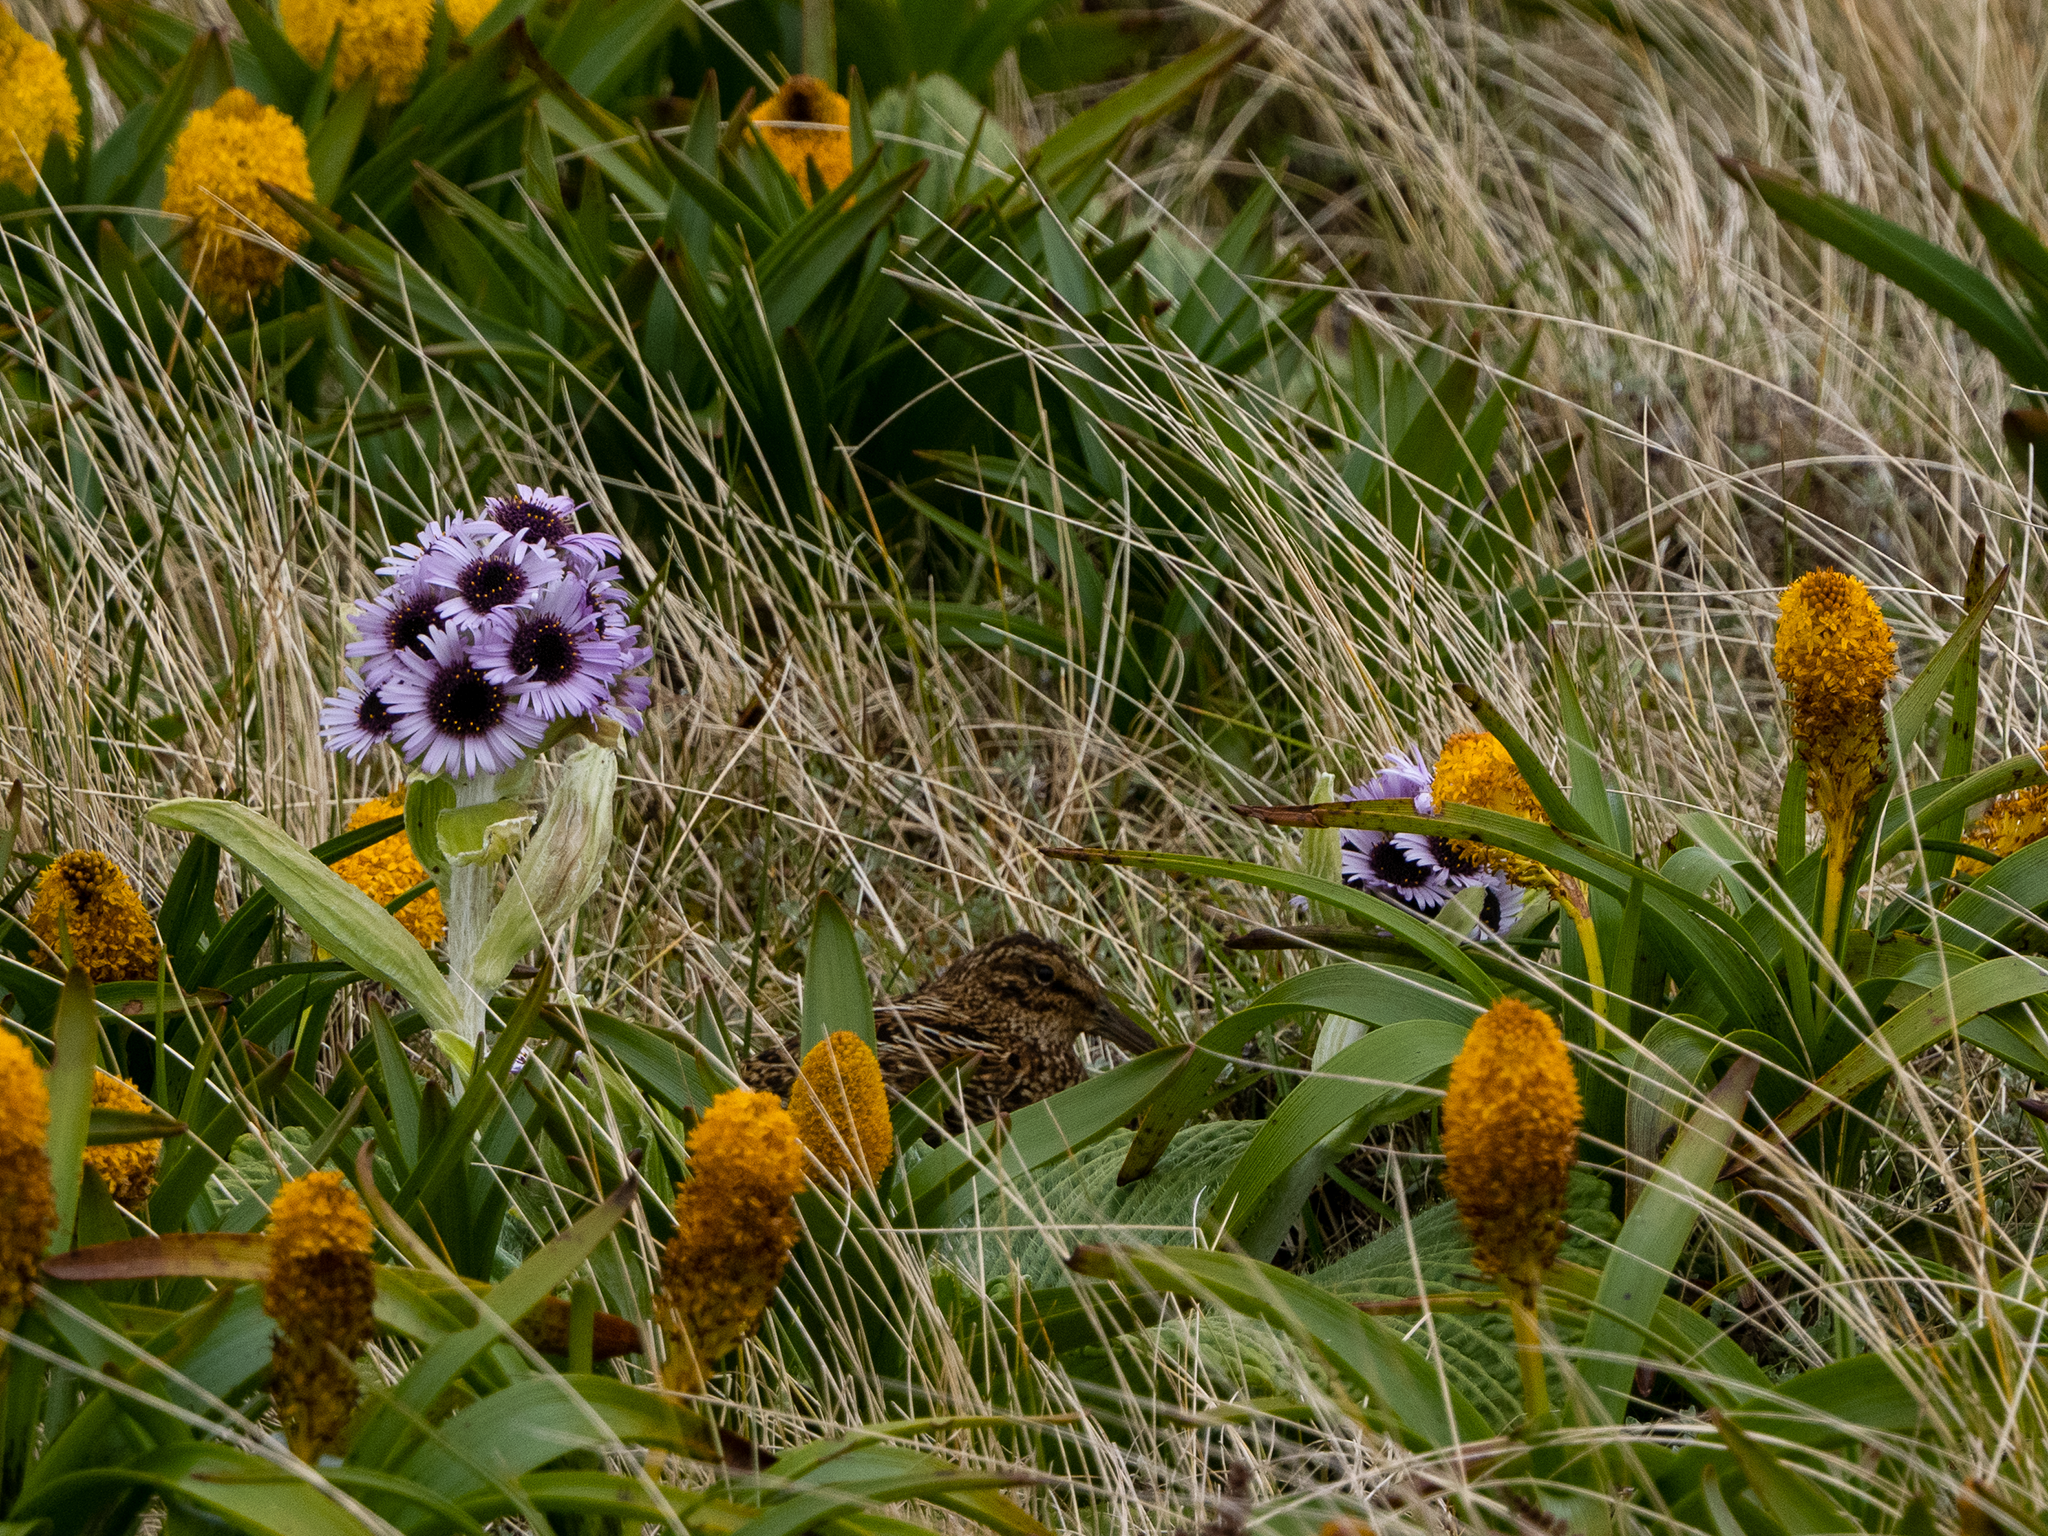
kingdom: Animalia
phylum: Chordata
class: Aves
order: Charadriiformes
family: Scolopacidae
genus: Coenocorypha
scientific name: Coenocorypha aucklandica
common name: Subantarctic snipe
